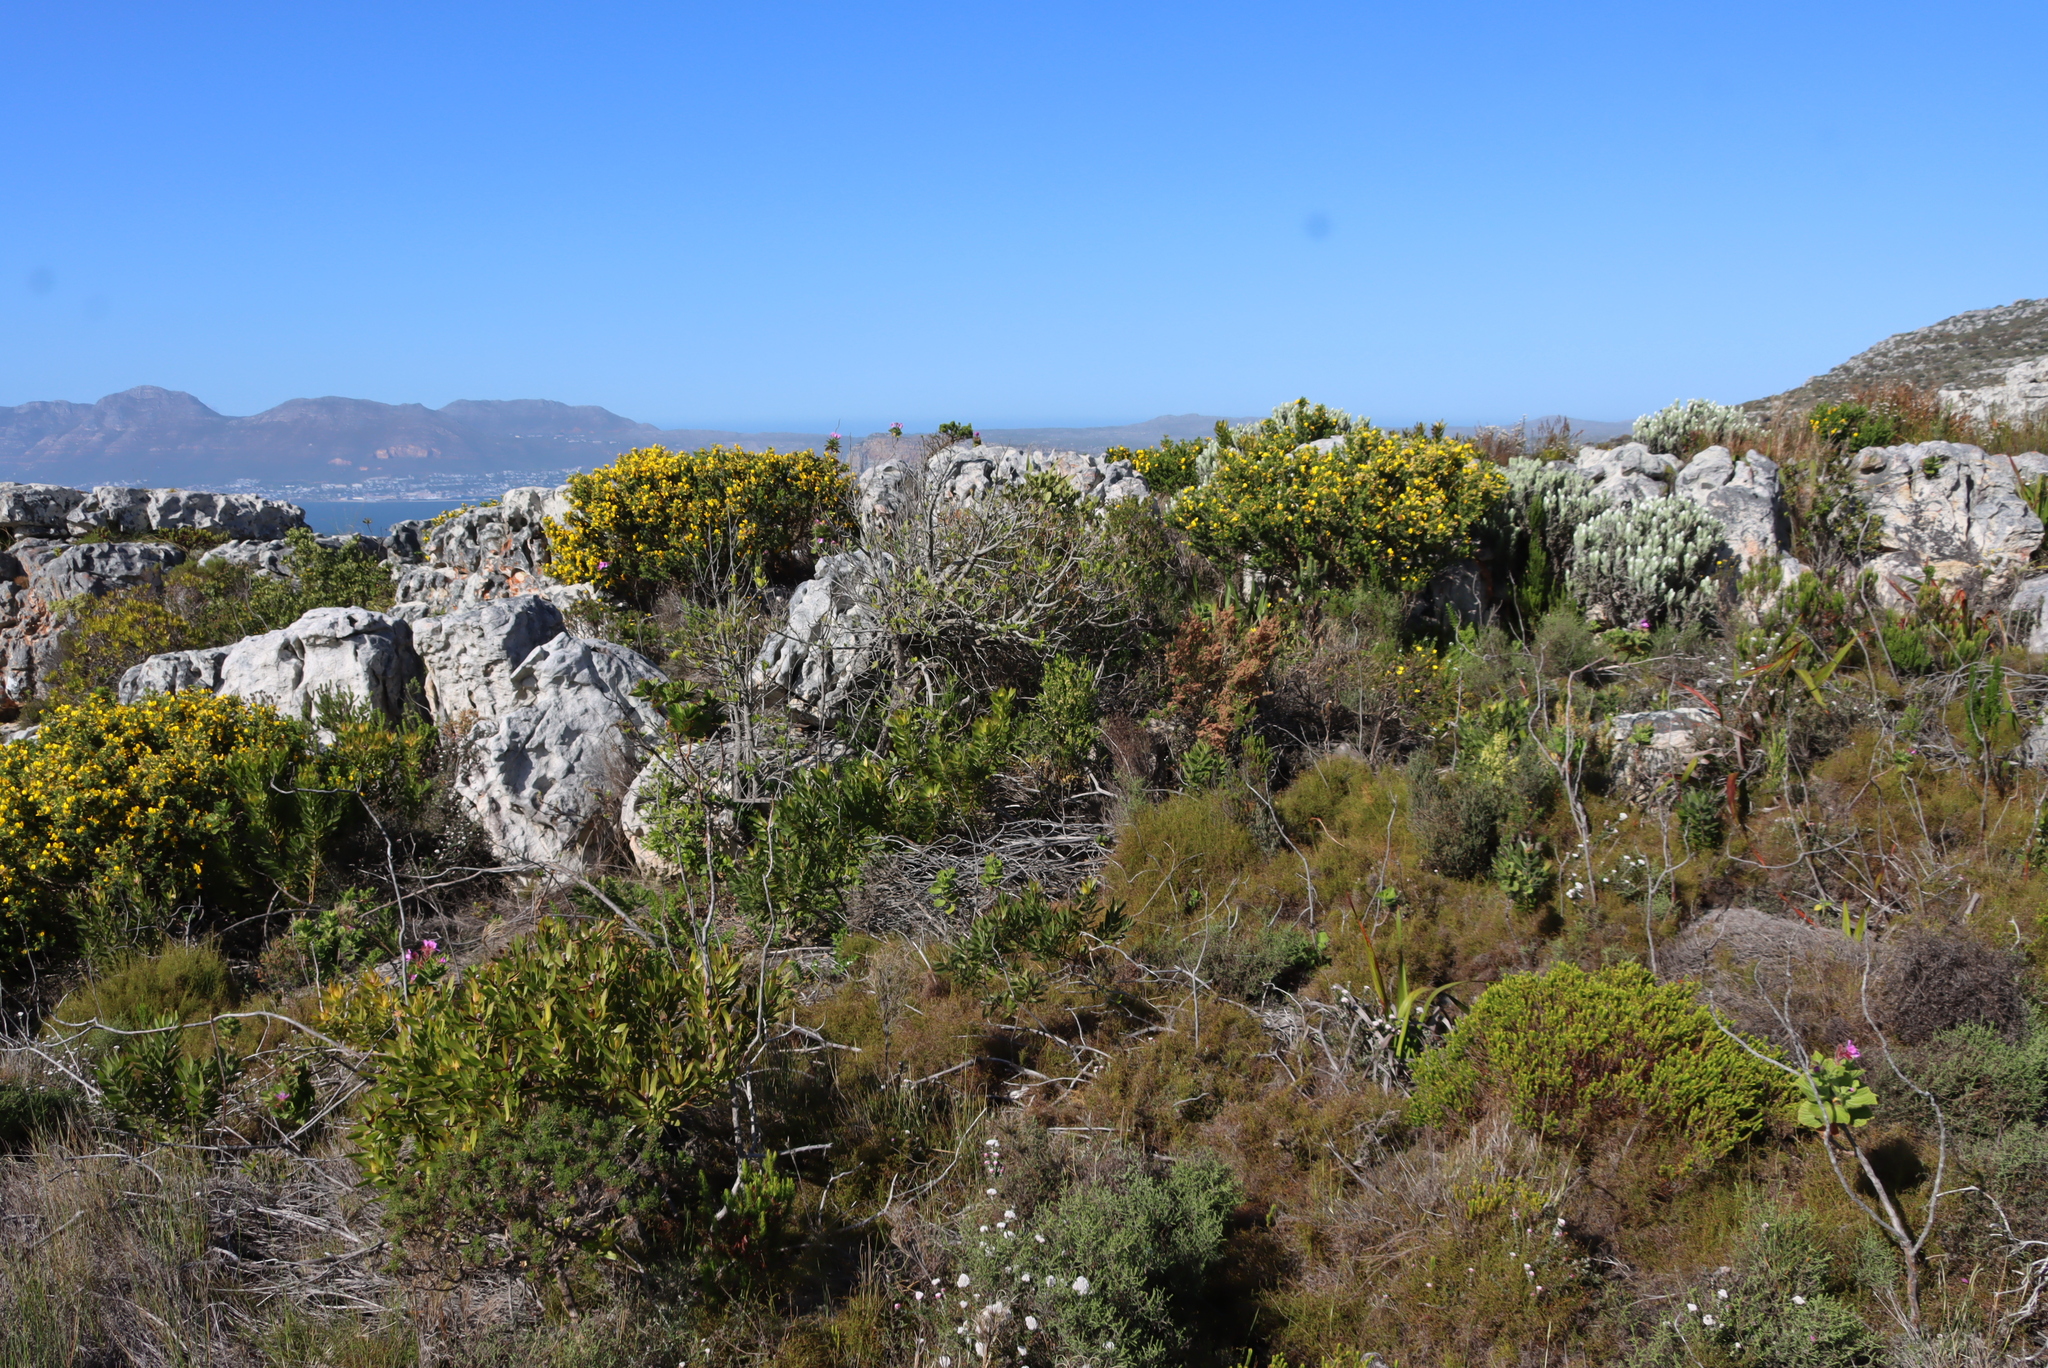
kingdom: Plantae
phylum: Tracheophyta
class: Magnoliopsida
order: Fabales
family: Fabaceae
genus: Aspalathus
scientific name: Aspalathus capensis
